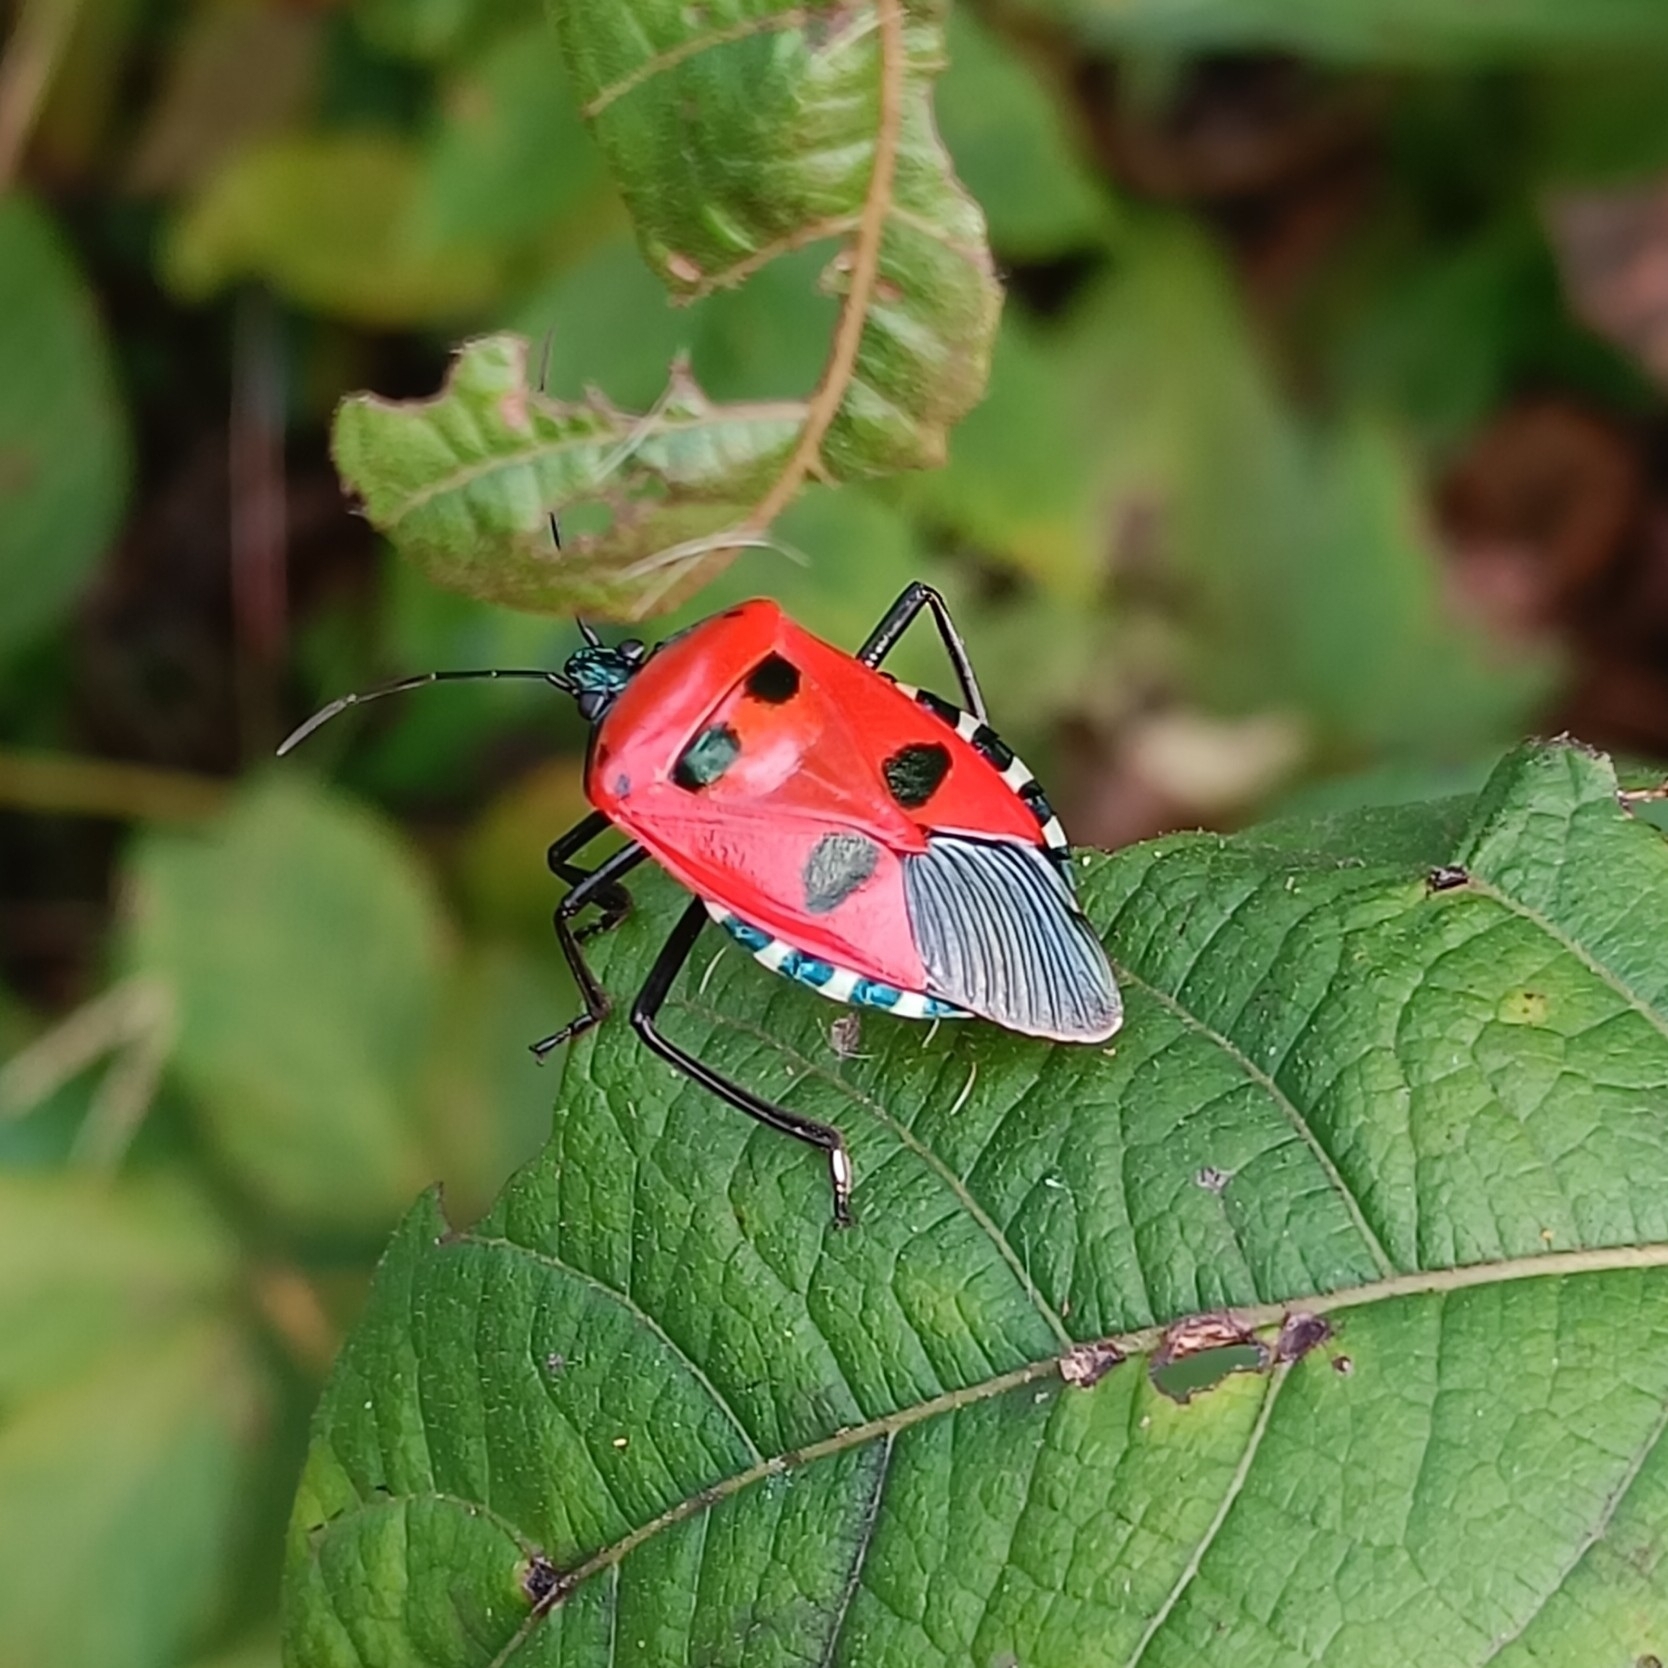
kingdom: Animalia
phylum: Arthropoda
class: Insecta
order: Hemiptera
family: Pentatomidae
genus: Catacanthus
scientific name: Catacanthus incarnatus
